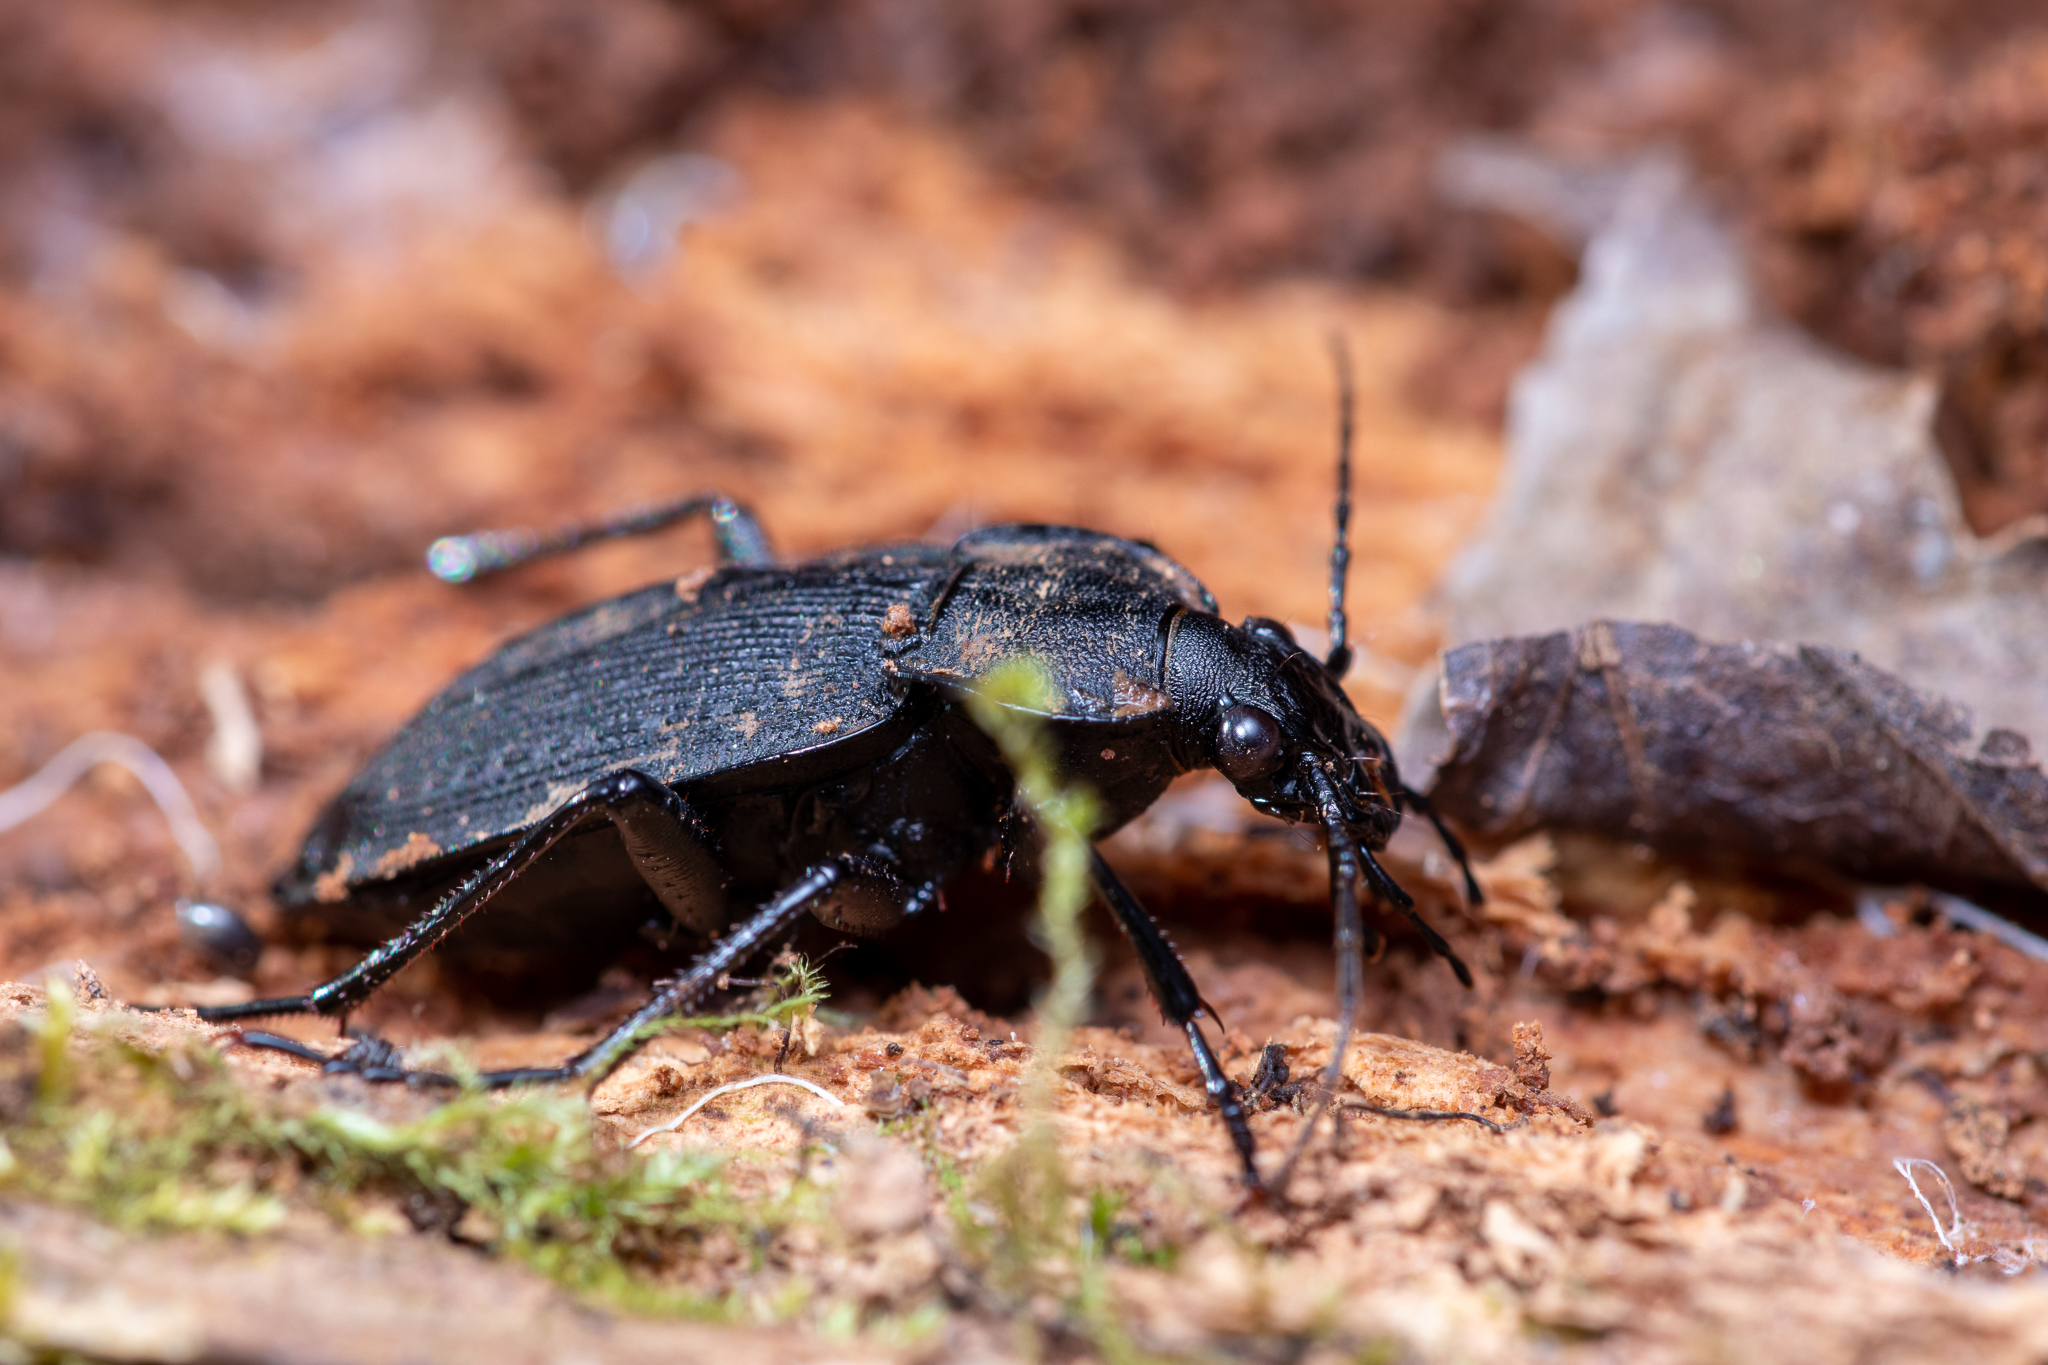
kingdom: Animalia
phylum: Arthropoda
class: Insecta
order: Coleoptera
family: Carabidae
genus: Carabus
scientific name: Carabus vinctus
